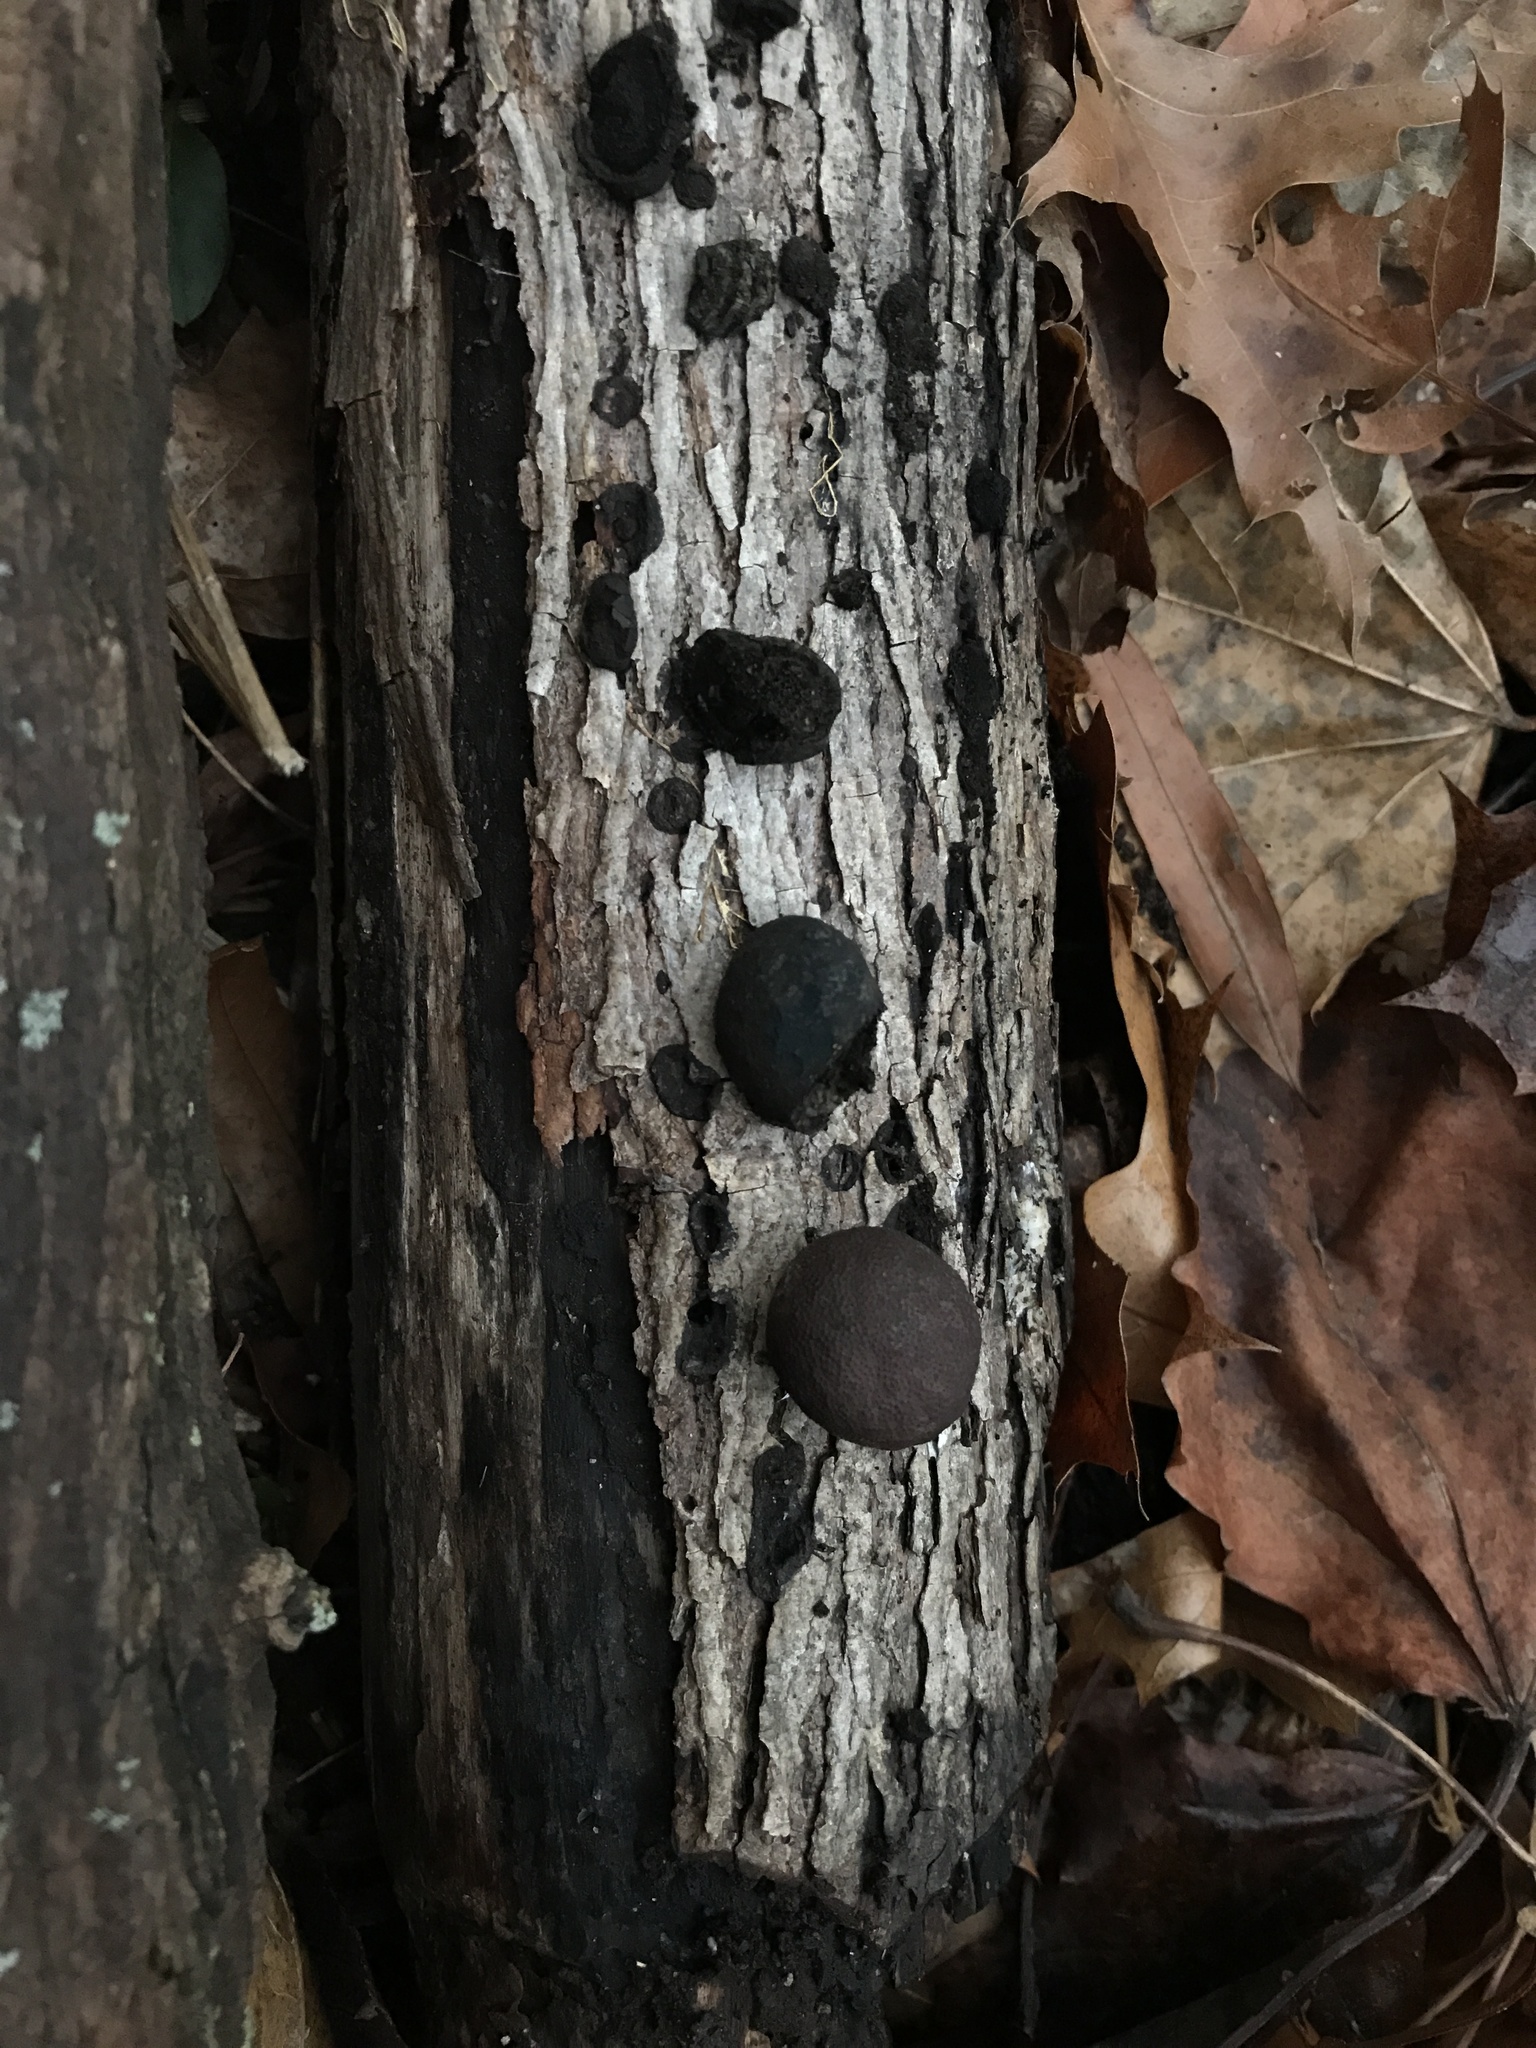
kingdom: Fungi
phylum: Ascomycota
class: Sordariomycetes
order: Xylariales
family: Hypoxylaceae
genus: Daldinia
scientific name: Daldinia childiae
